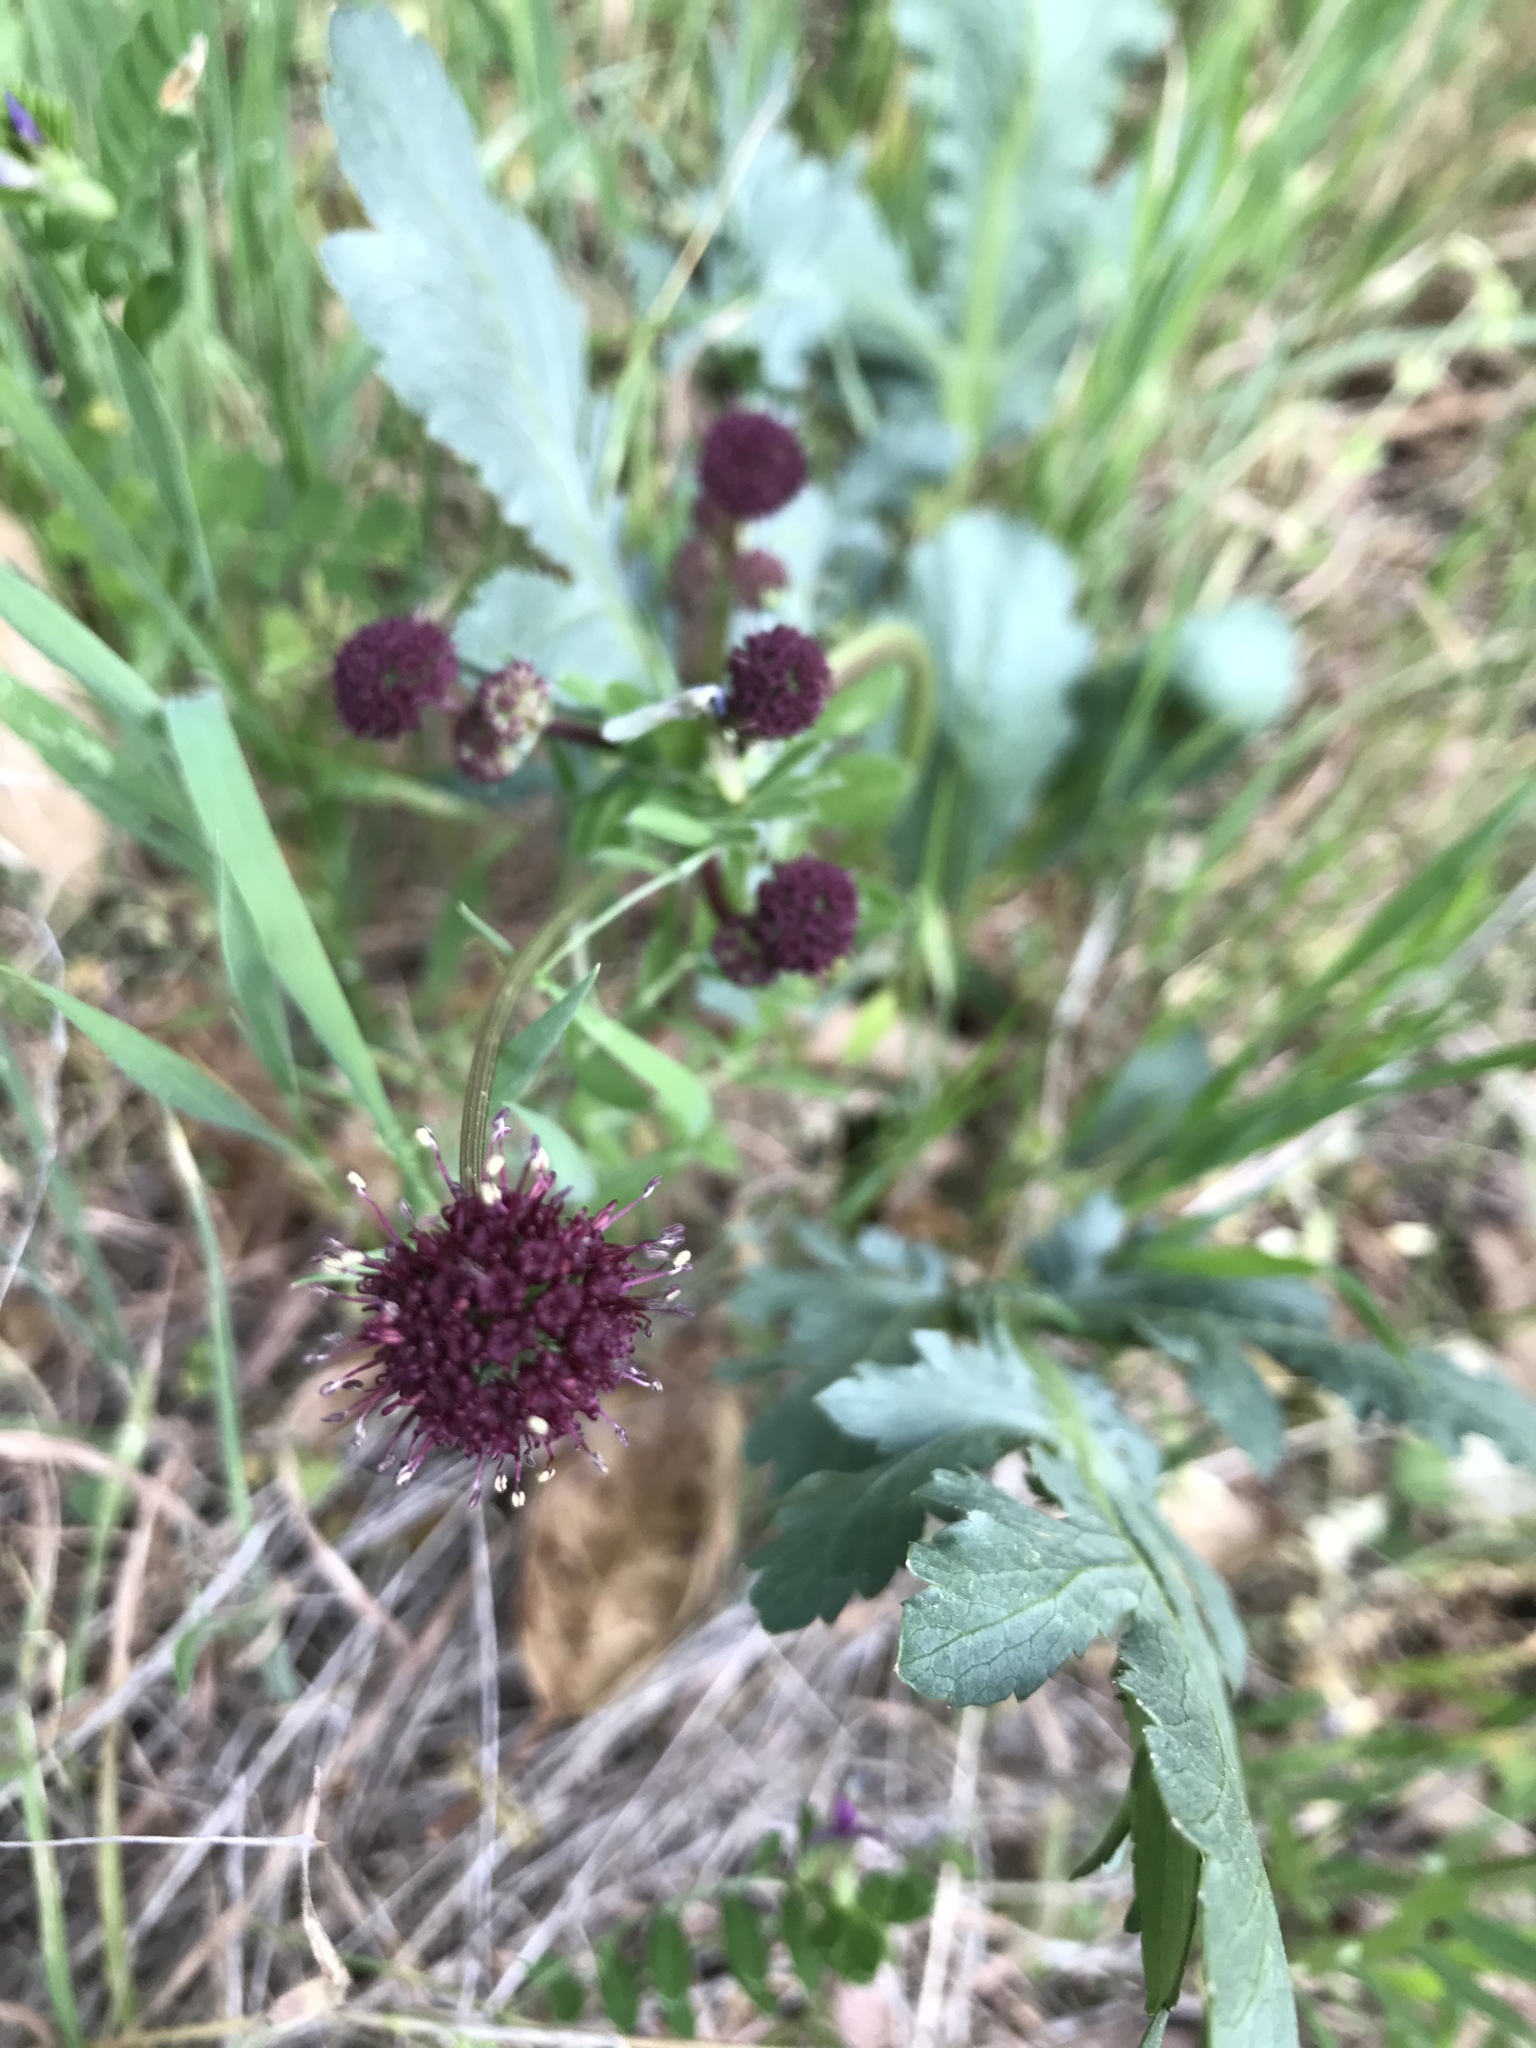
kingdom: Plantae
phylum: Tracheophyta
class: Magnoliopsida
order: Apiales
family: Apiaceae
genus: Sanicula
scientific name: Sanicula bipinnatifida
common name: Shoe-buttons
